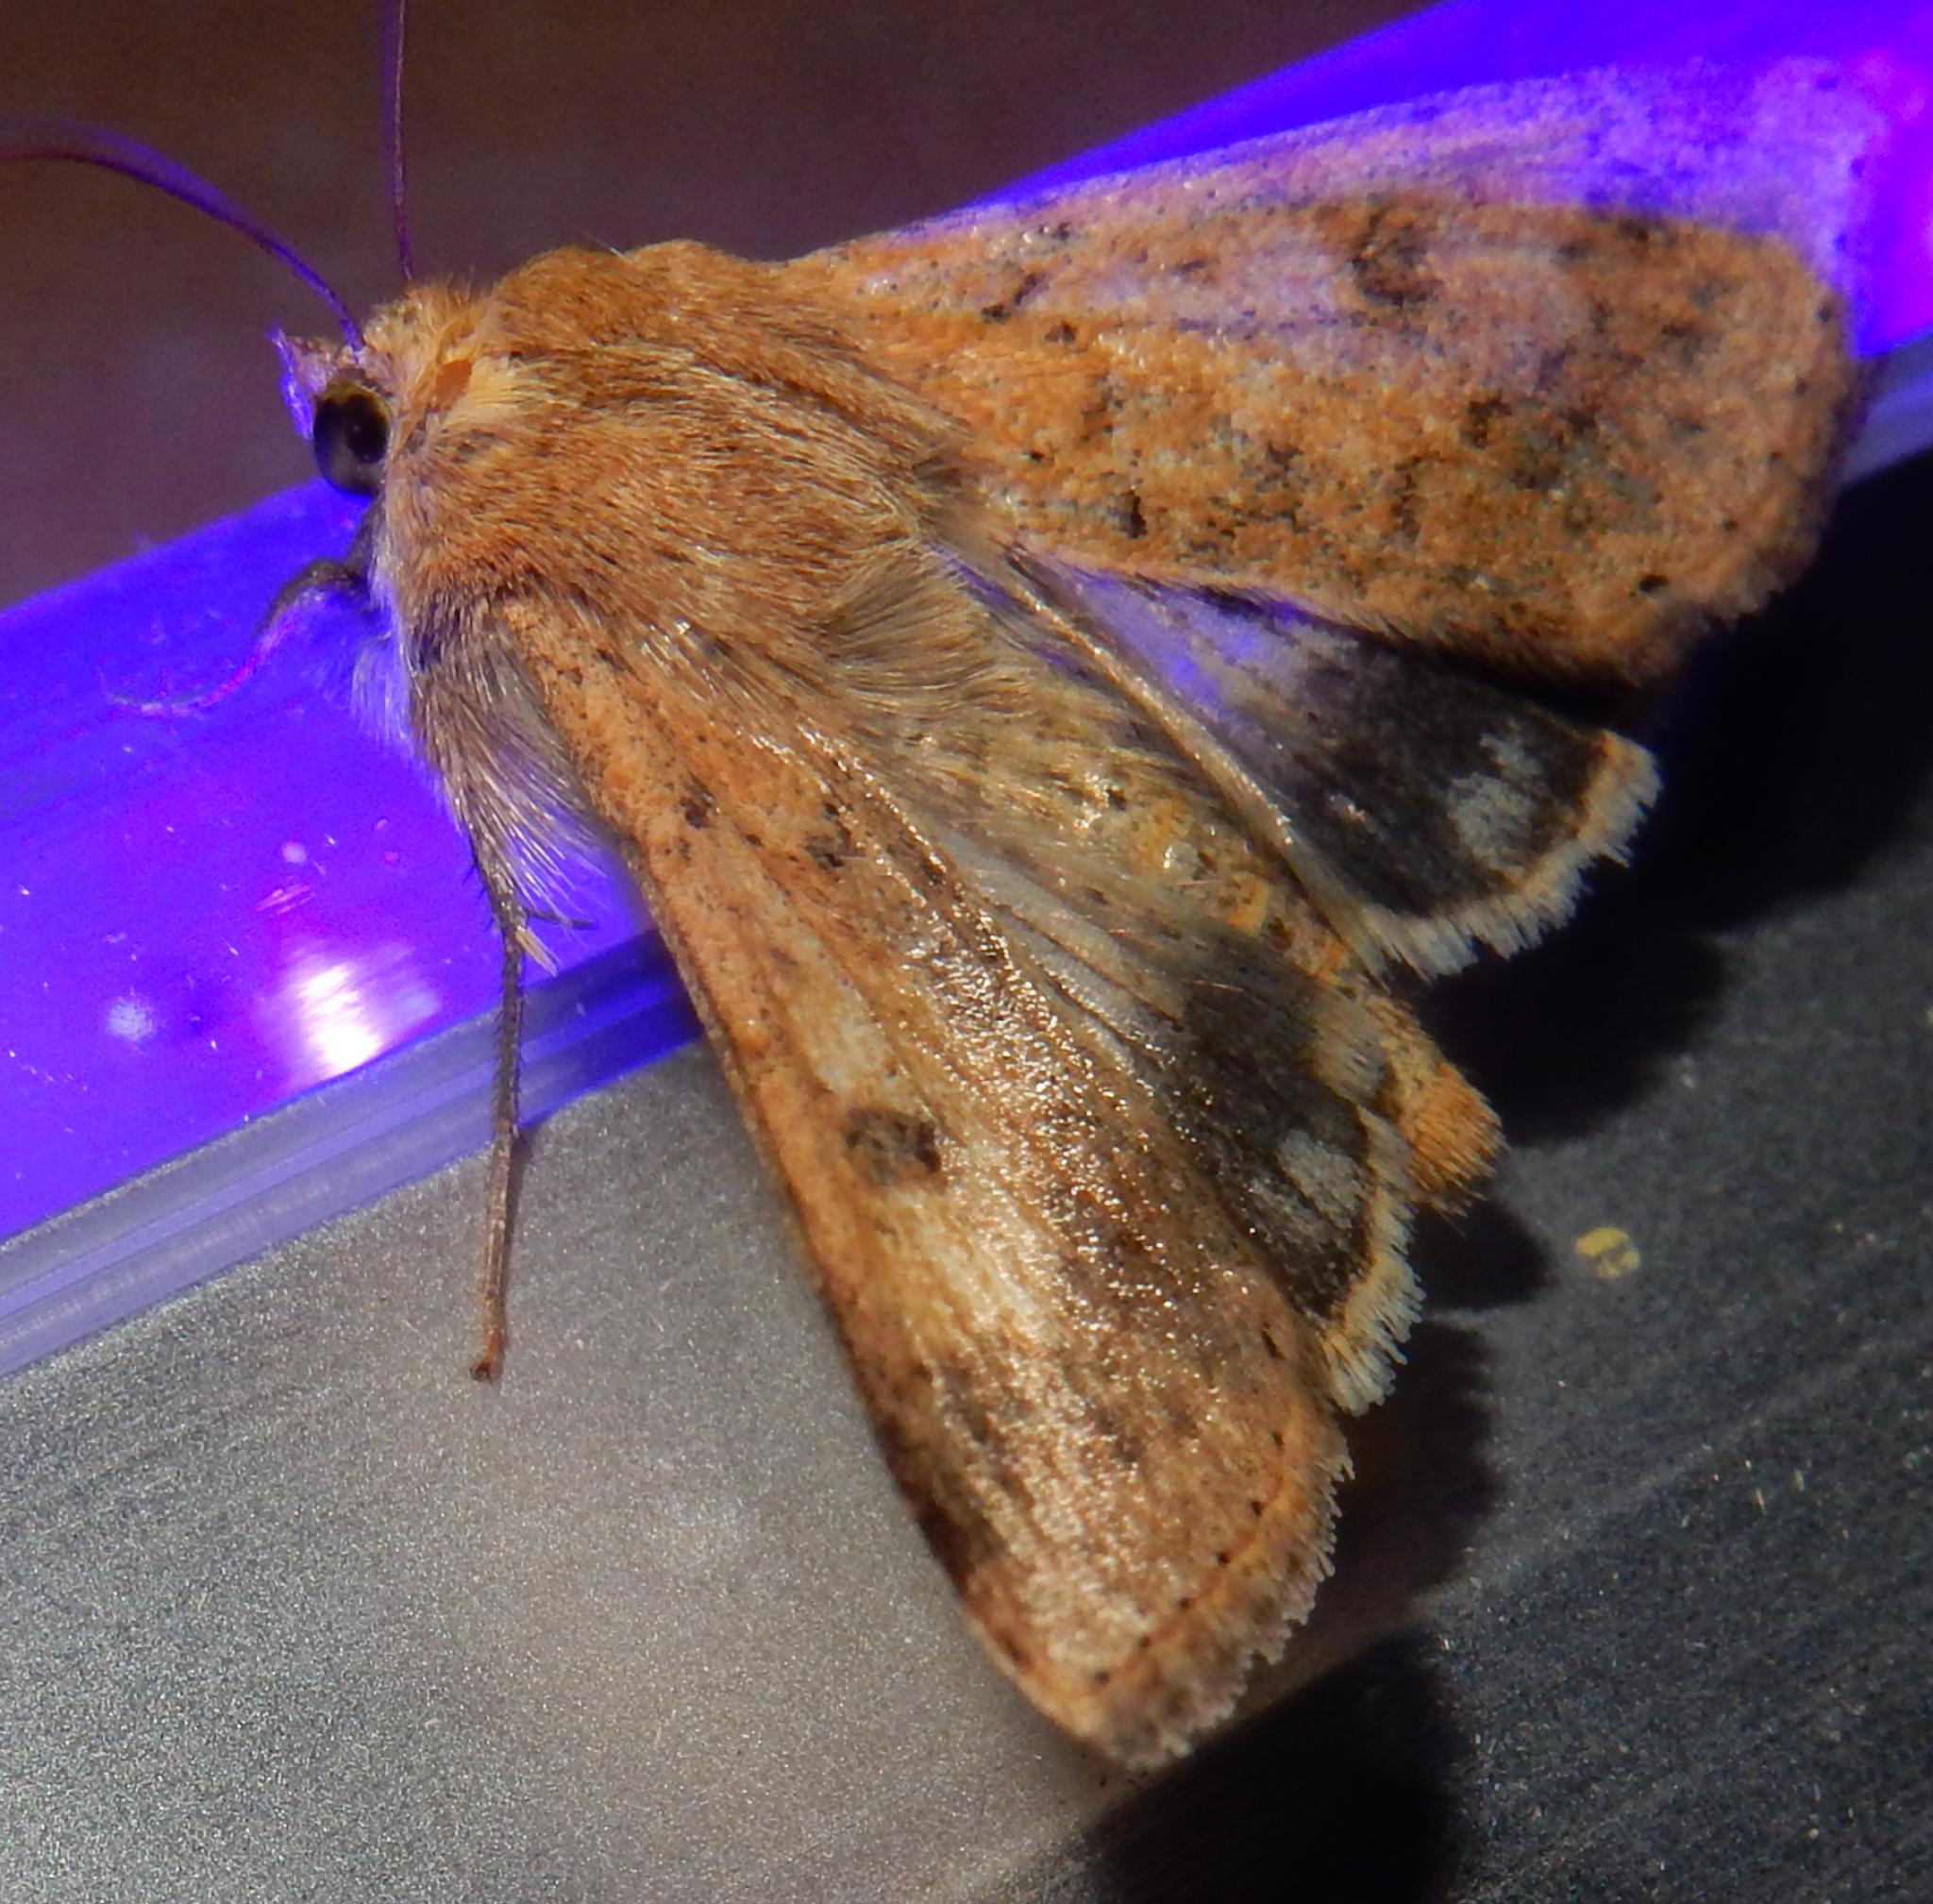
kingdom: Animalia
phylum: Arthropoda
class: Insecta
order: Lepidoptera
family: Noctuidae
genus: Helicoverpa
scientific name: Helicoverpa armigera
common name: Cotton bollworm
